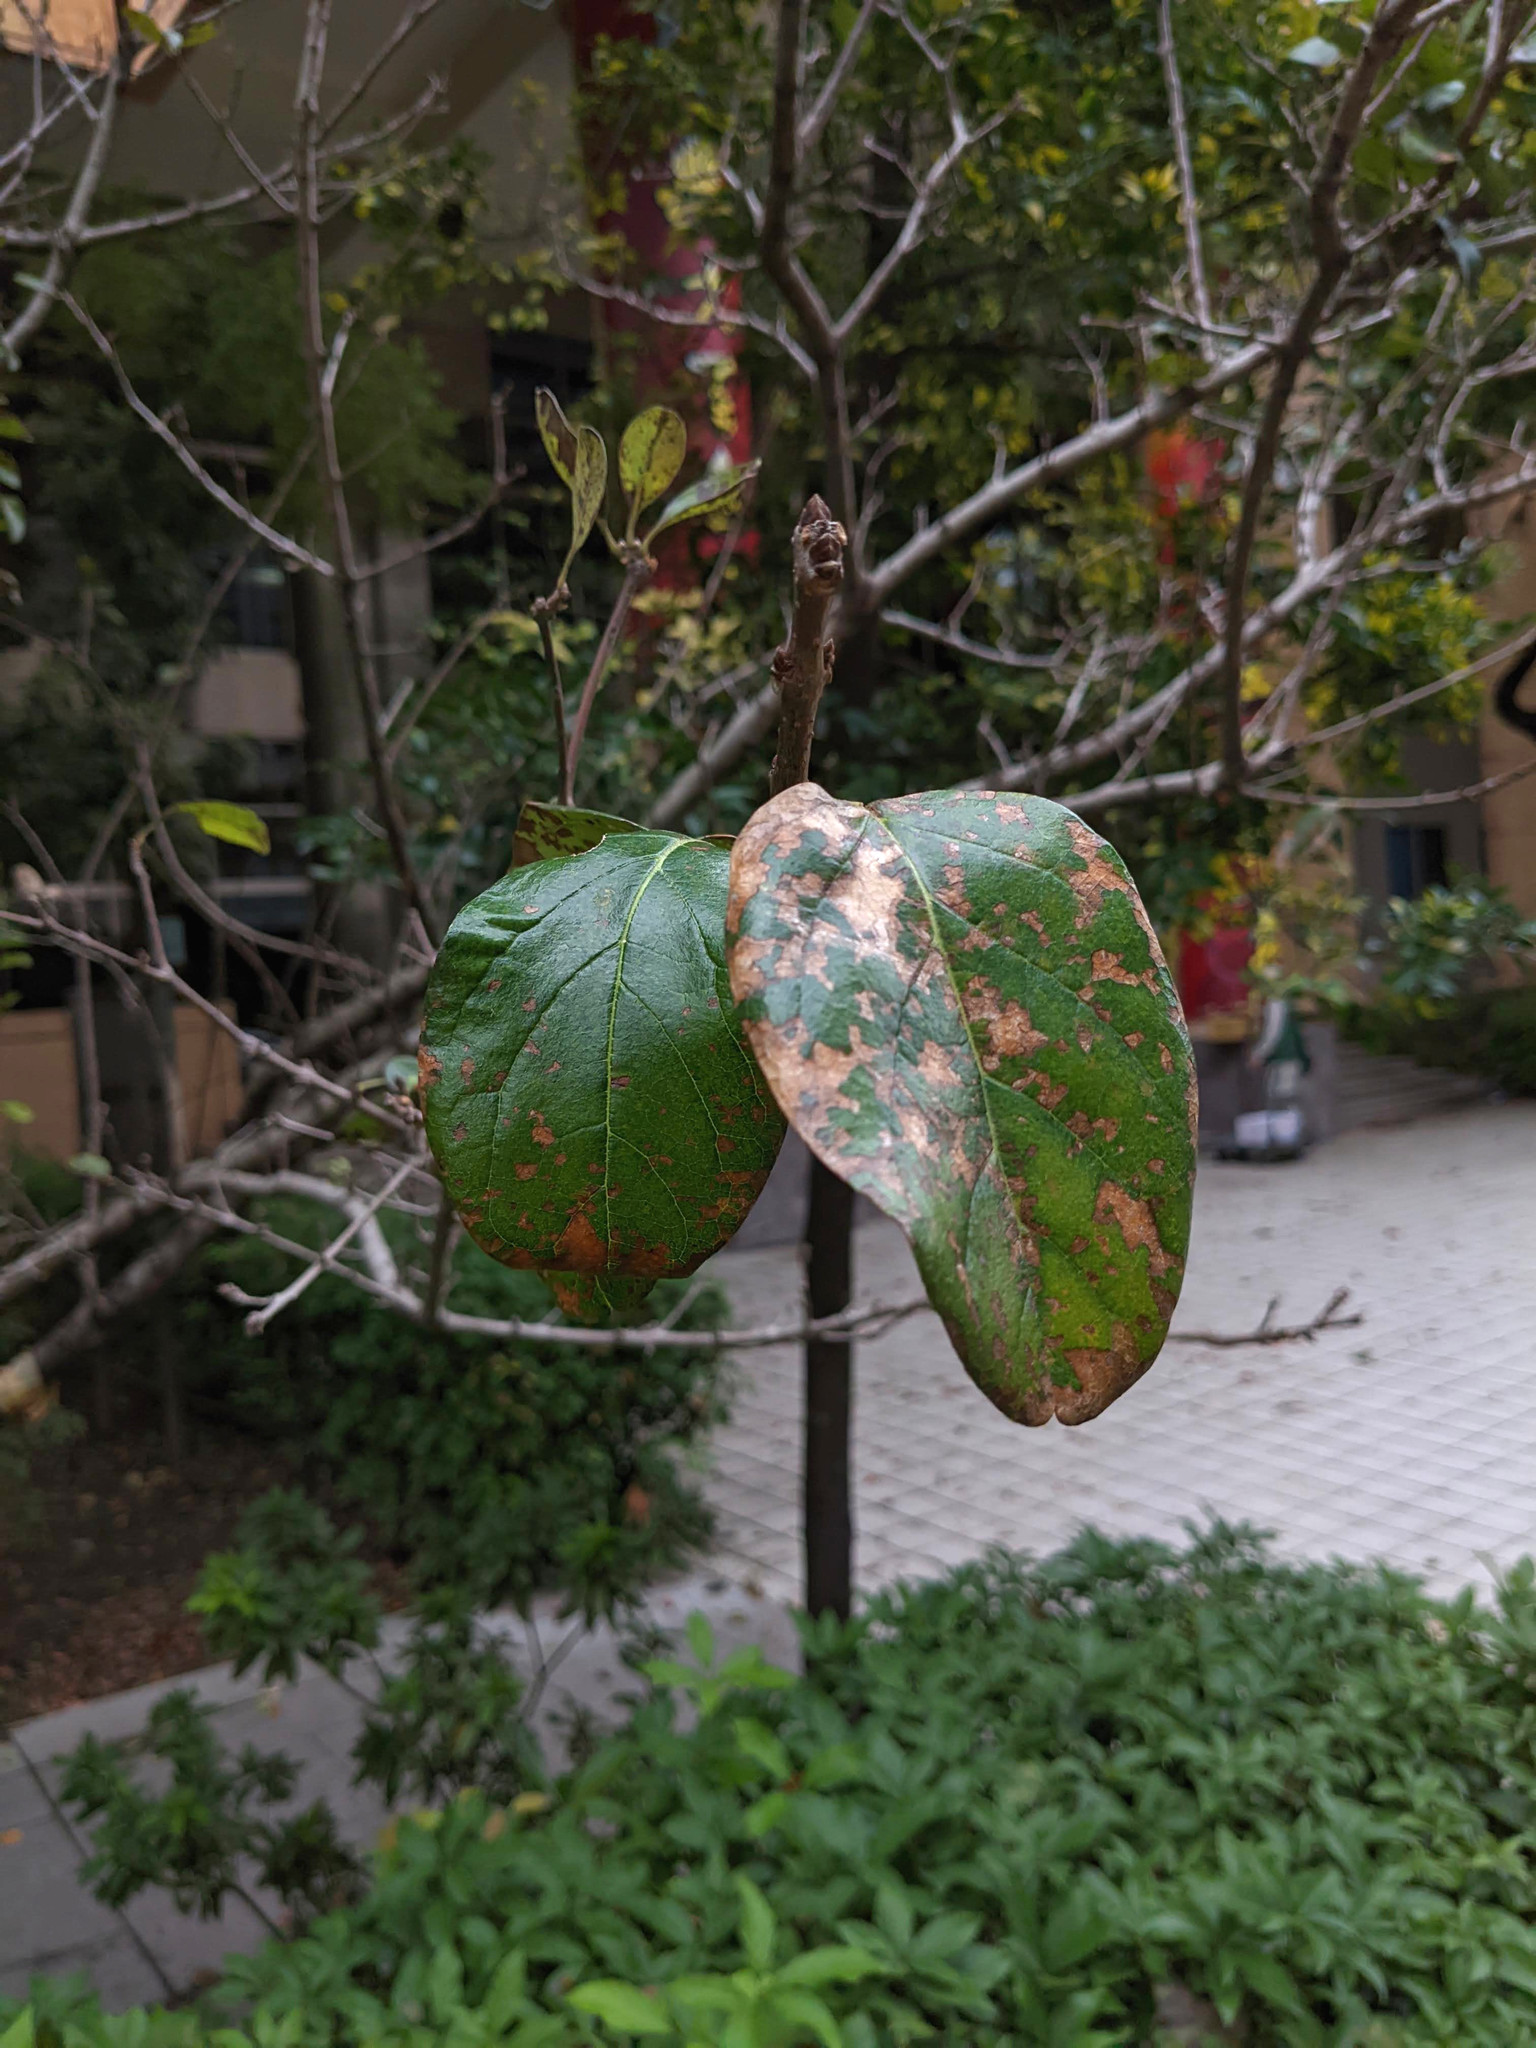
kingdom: Fungi
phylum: Ascomycota
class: Dothideomycetes
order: Mycosphaerellales
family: Mycosphaerellaceae
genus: Pseudocercospora
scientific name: Pseudocercospora chionanthi-retusi
